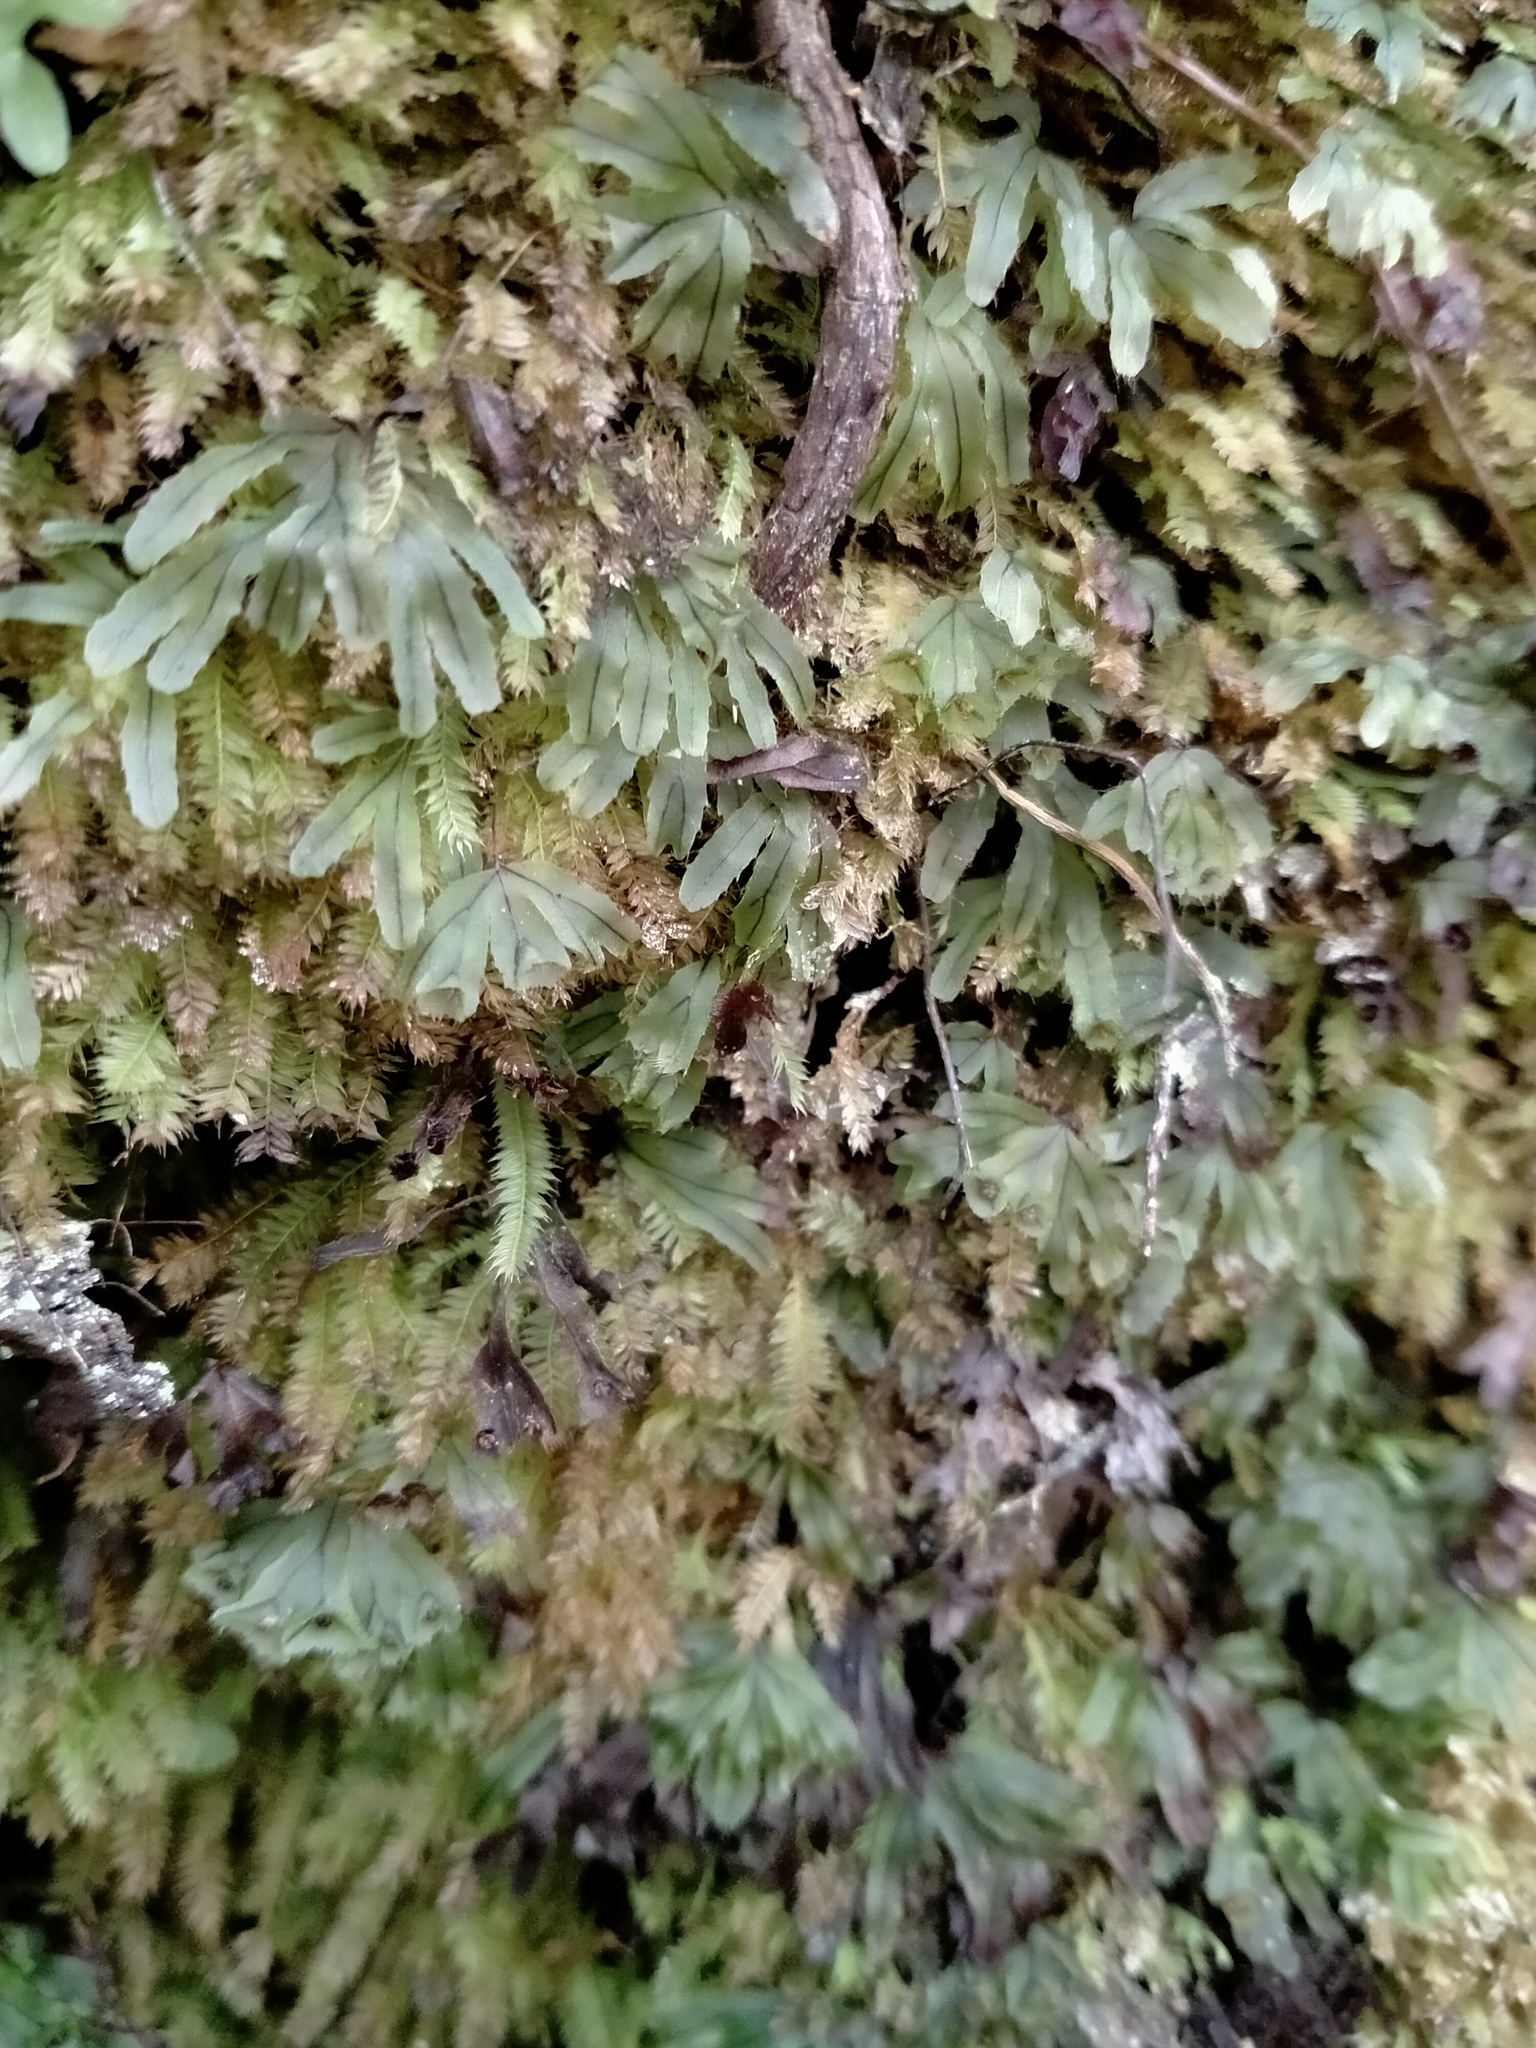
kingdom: Plantae
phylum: Tracheophyta
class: Polypodiopsida
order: Hymenophyllales
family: Hymenophyllaceae
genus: Hymenophyllum
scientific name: Hymenophyllum lyallii
